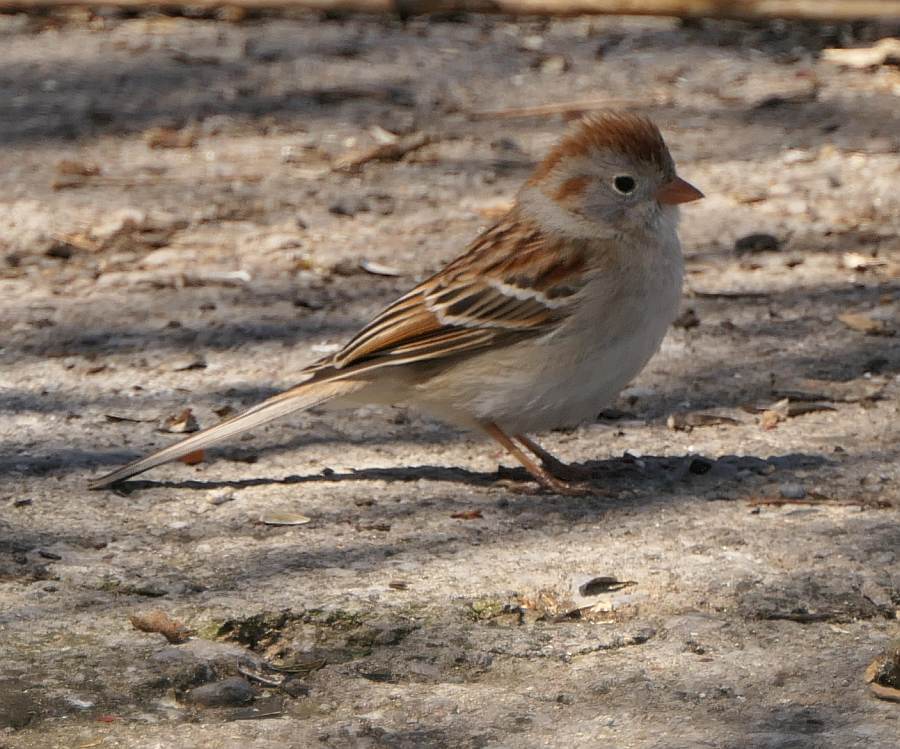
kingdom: Animalia
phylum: Chordata
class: Aves
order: Passeriformes
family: Passerellidae
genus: Spizella
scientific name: Spizella pusilla
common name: Field sparrow
